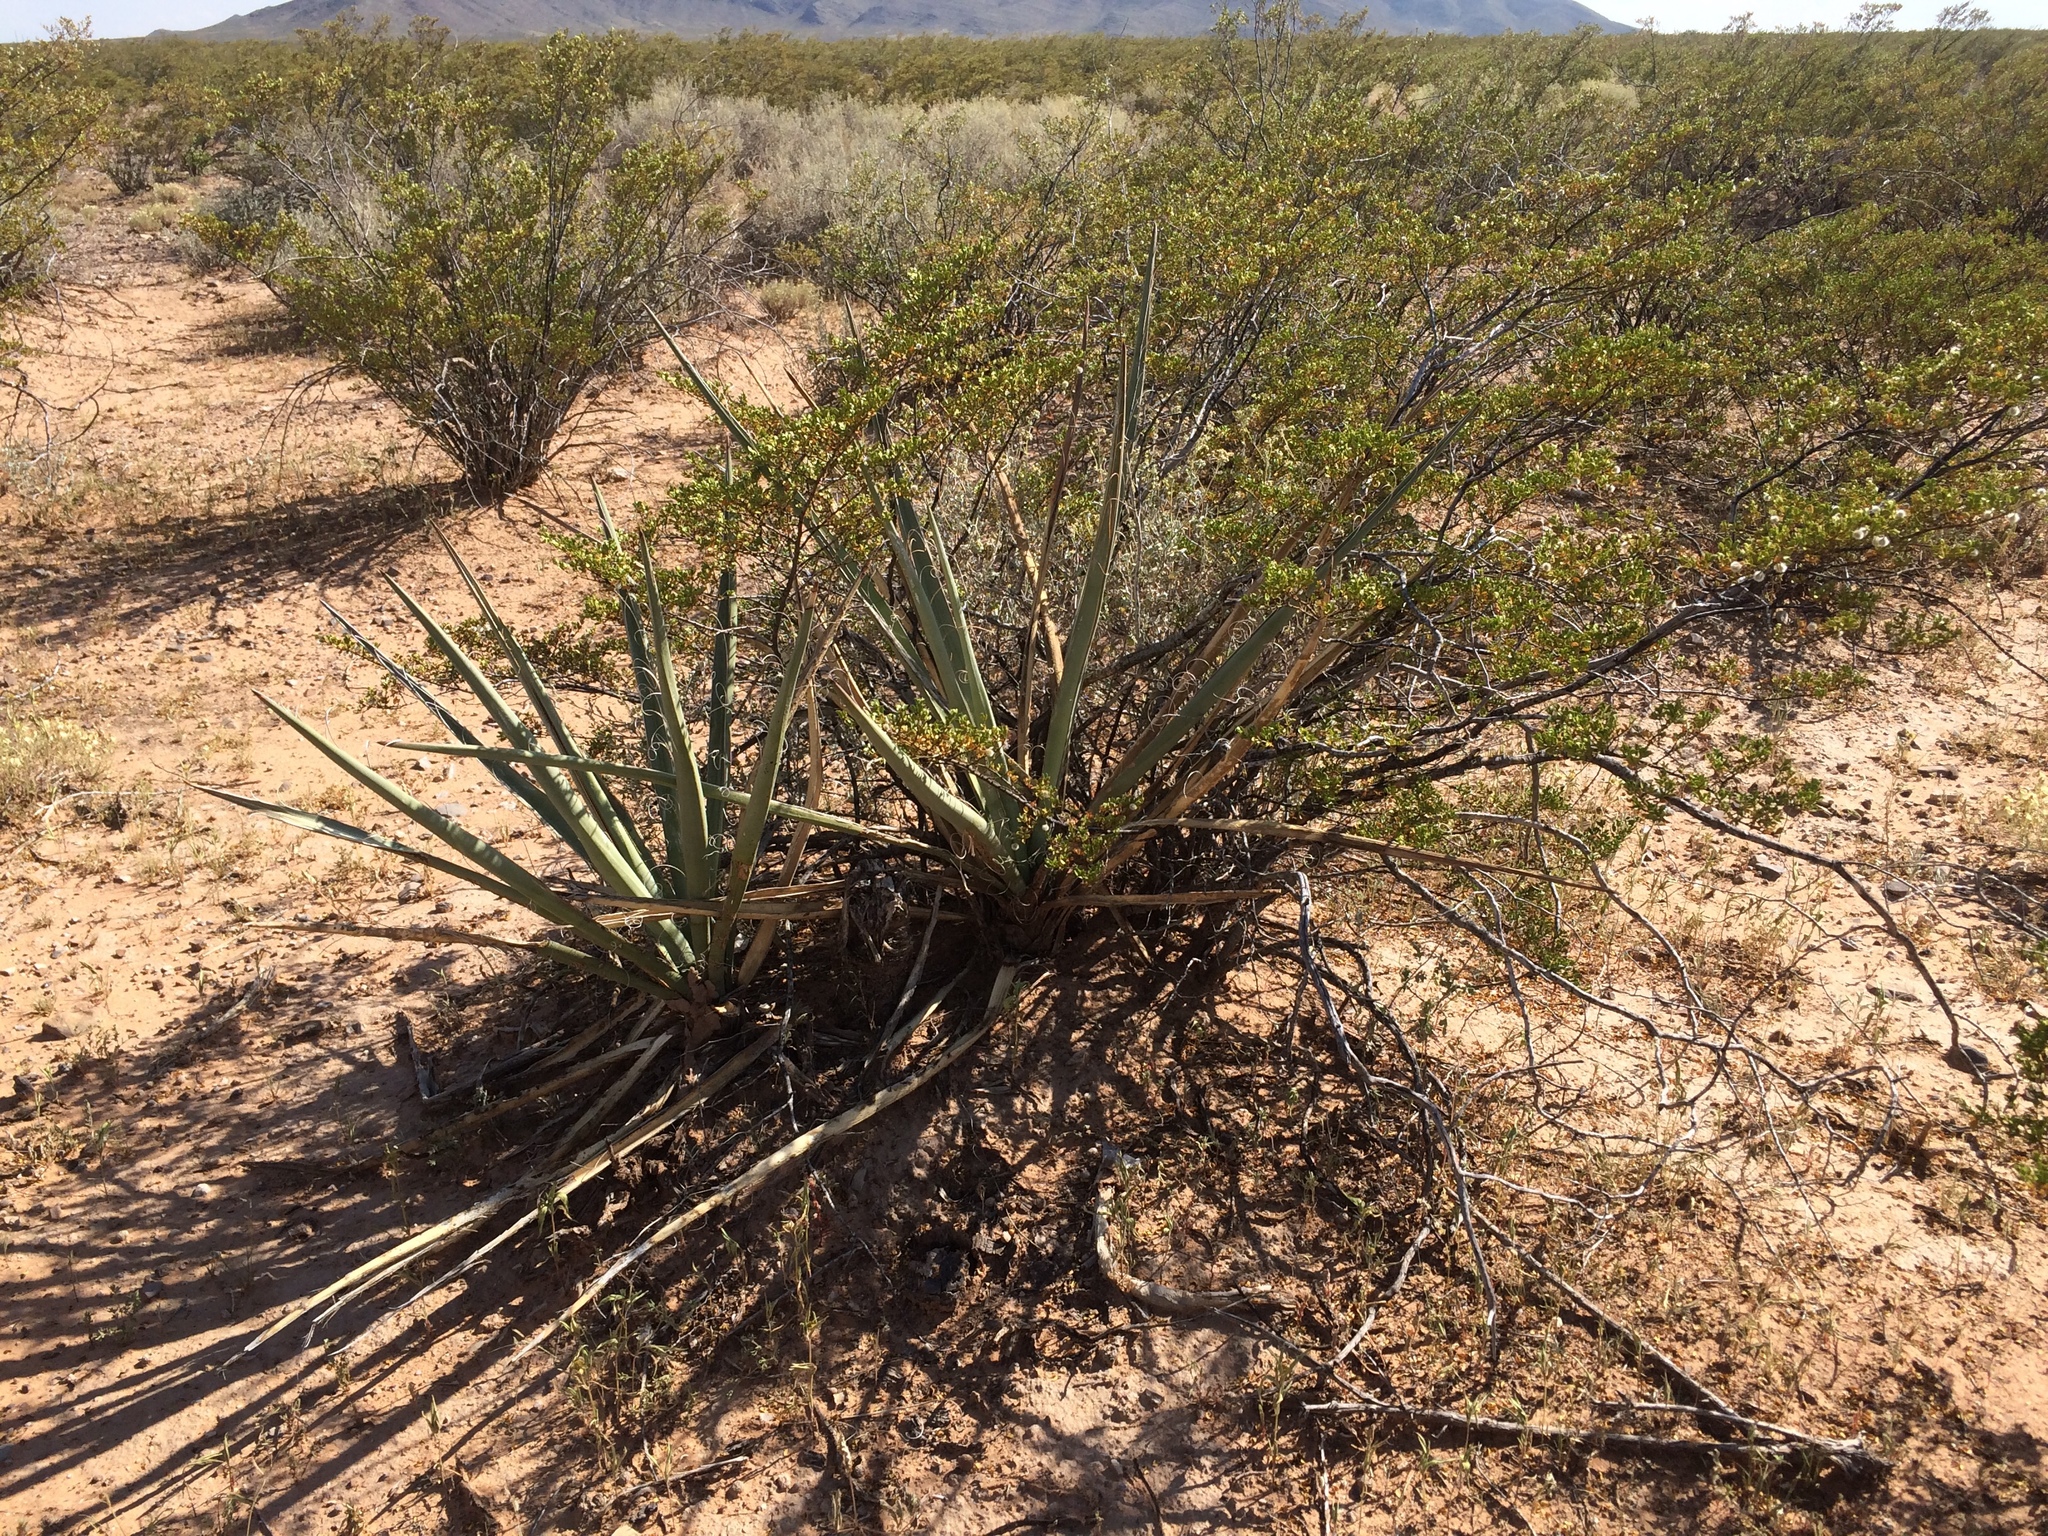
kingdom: Plantae
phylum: Tracheophyta
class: Liliopsida
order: Asparagales
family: Asparagaceae
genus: Yucca
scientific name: Yucca baccata
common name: Banana yucca
